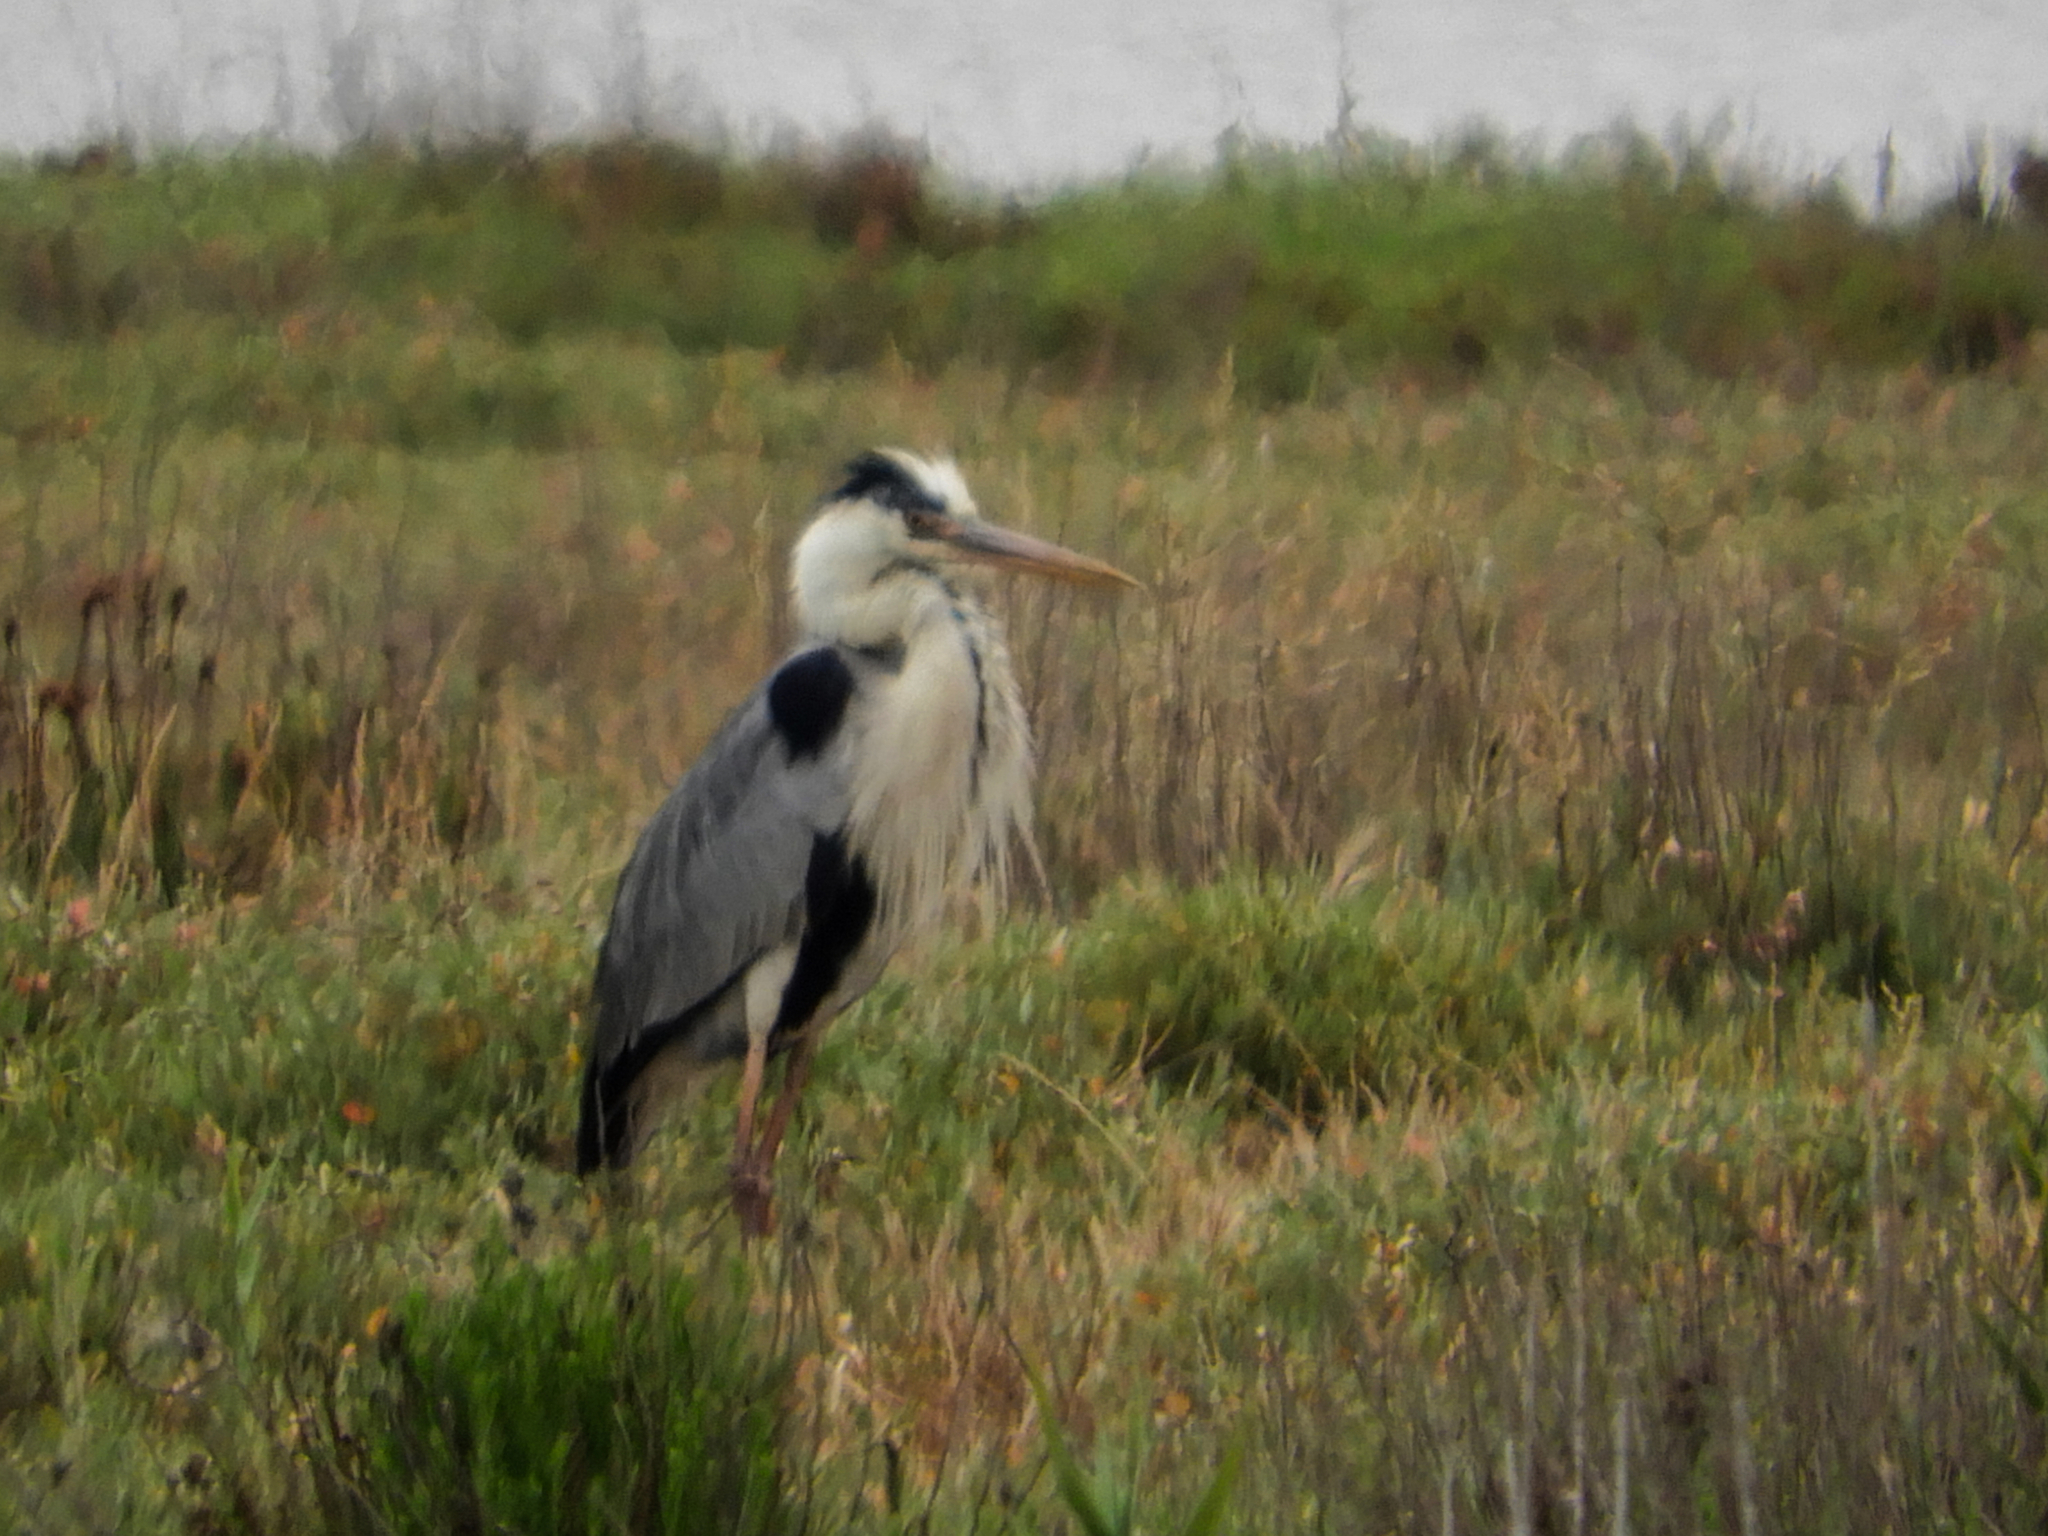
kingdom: Animalia
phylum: Chordata
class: Aves
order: Pelecaniformes
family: Ardeidae
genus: Ardea
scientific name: Ardea cinerea
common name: Grey heron
